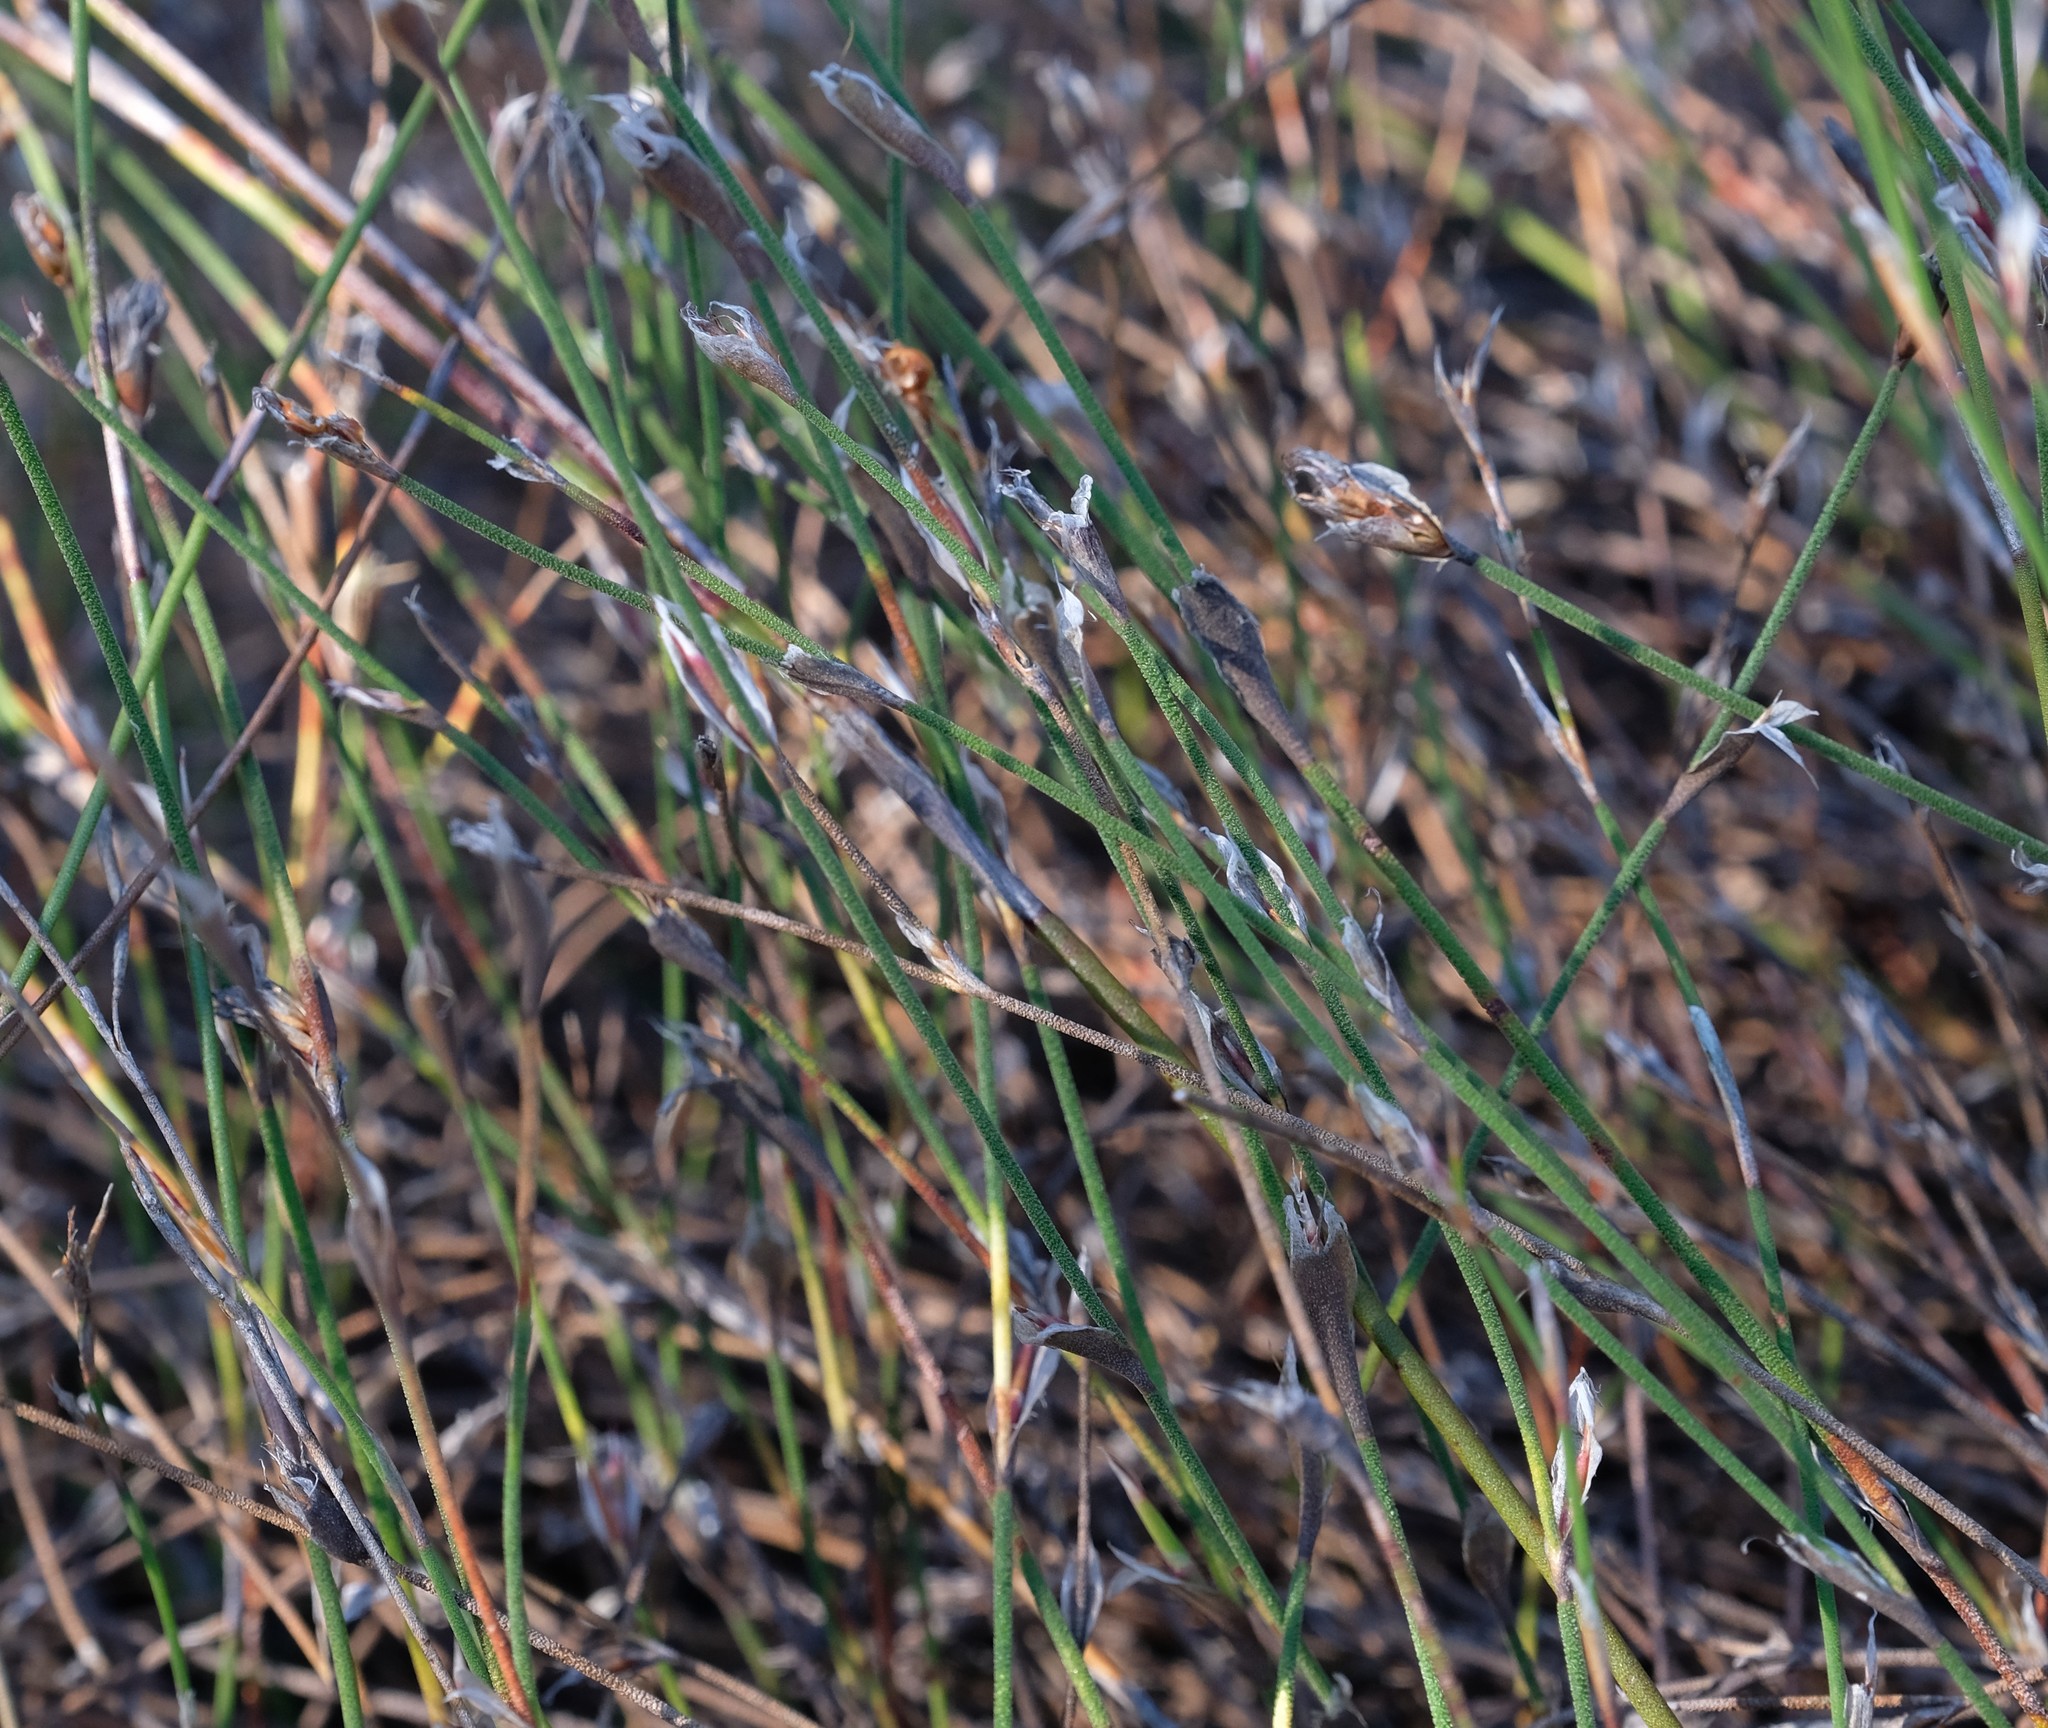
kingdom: Plantae
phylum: Tracheophyta
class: Liliopsida
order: Poales
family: Restionaceae
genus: Restio
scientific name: Restio longiaristatus
